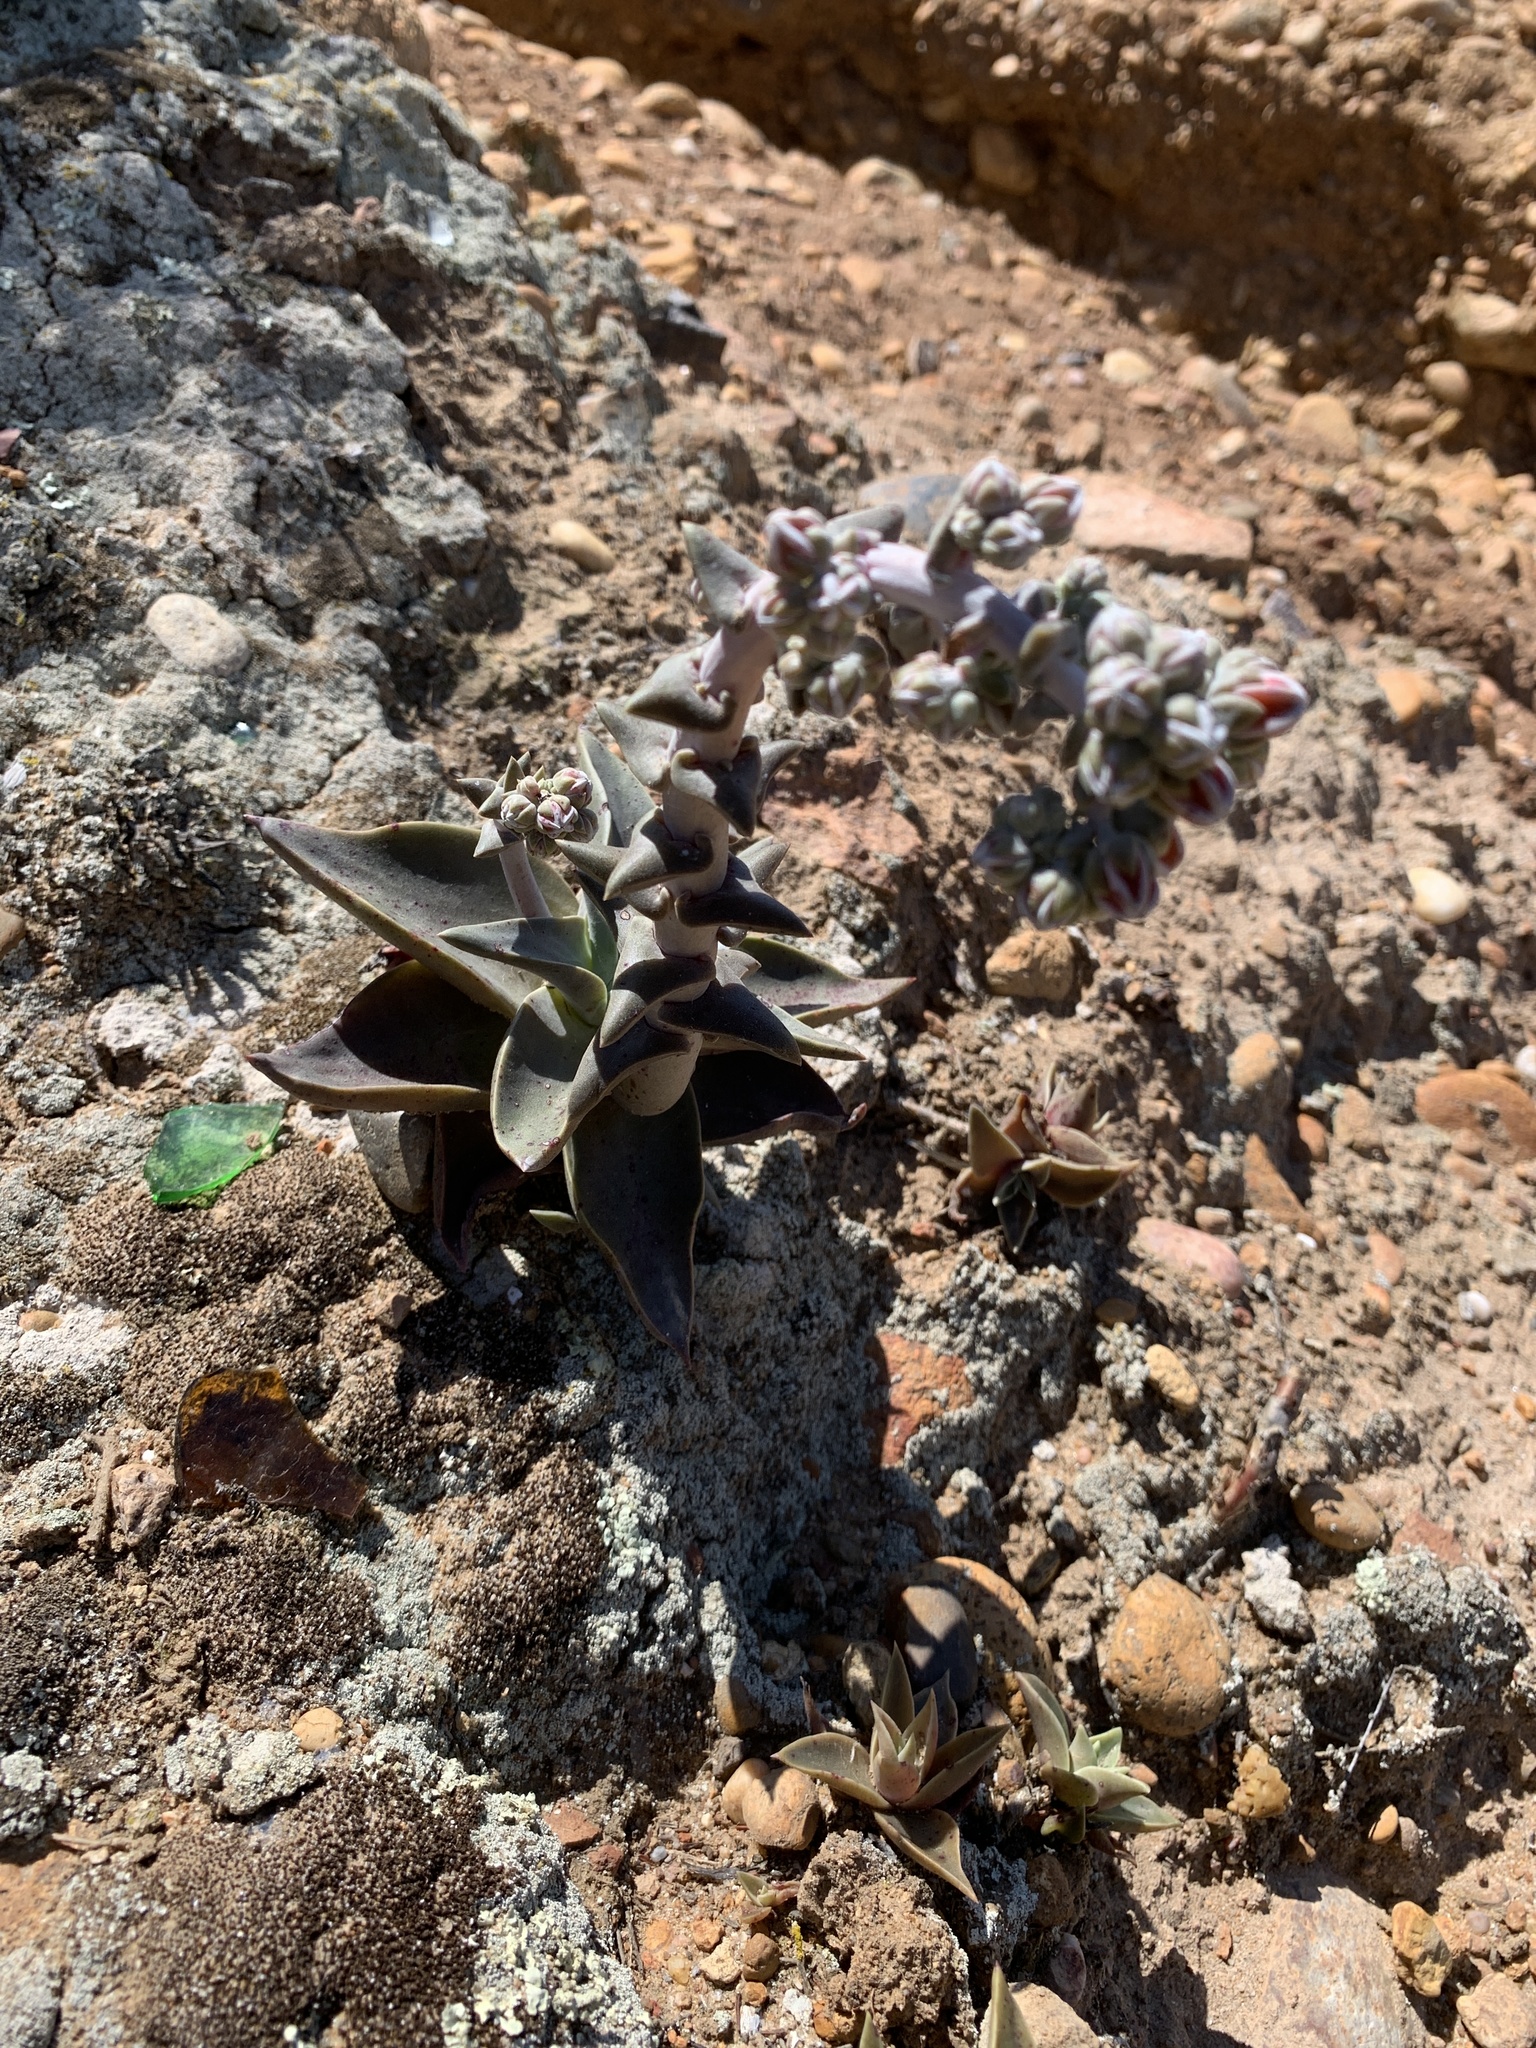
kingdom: Plantae
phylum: Tracheophyta
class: Magnoliopsida
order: Saxifragales
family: Crassulaceae
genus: Dudleya
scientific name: Dudleya lanceolata
